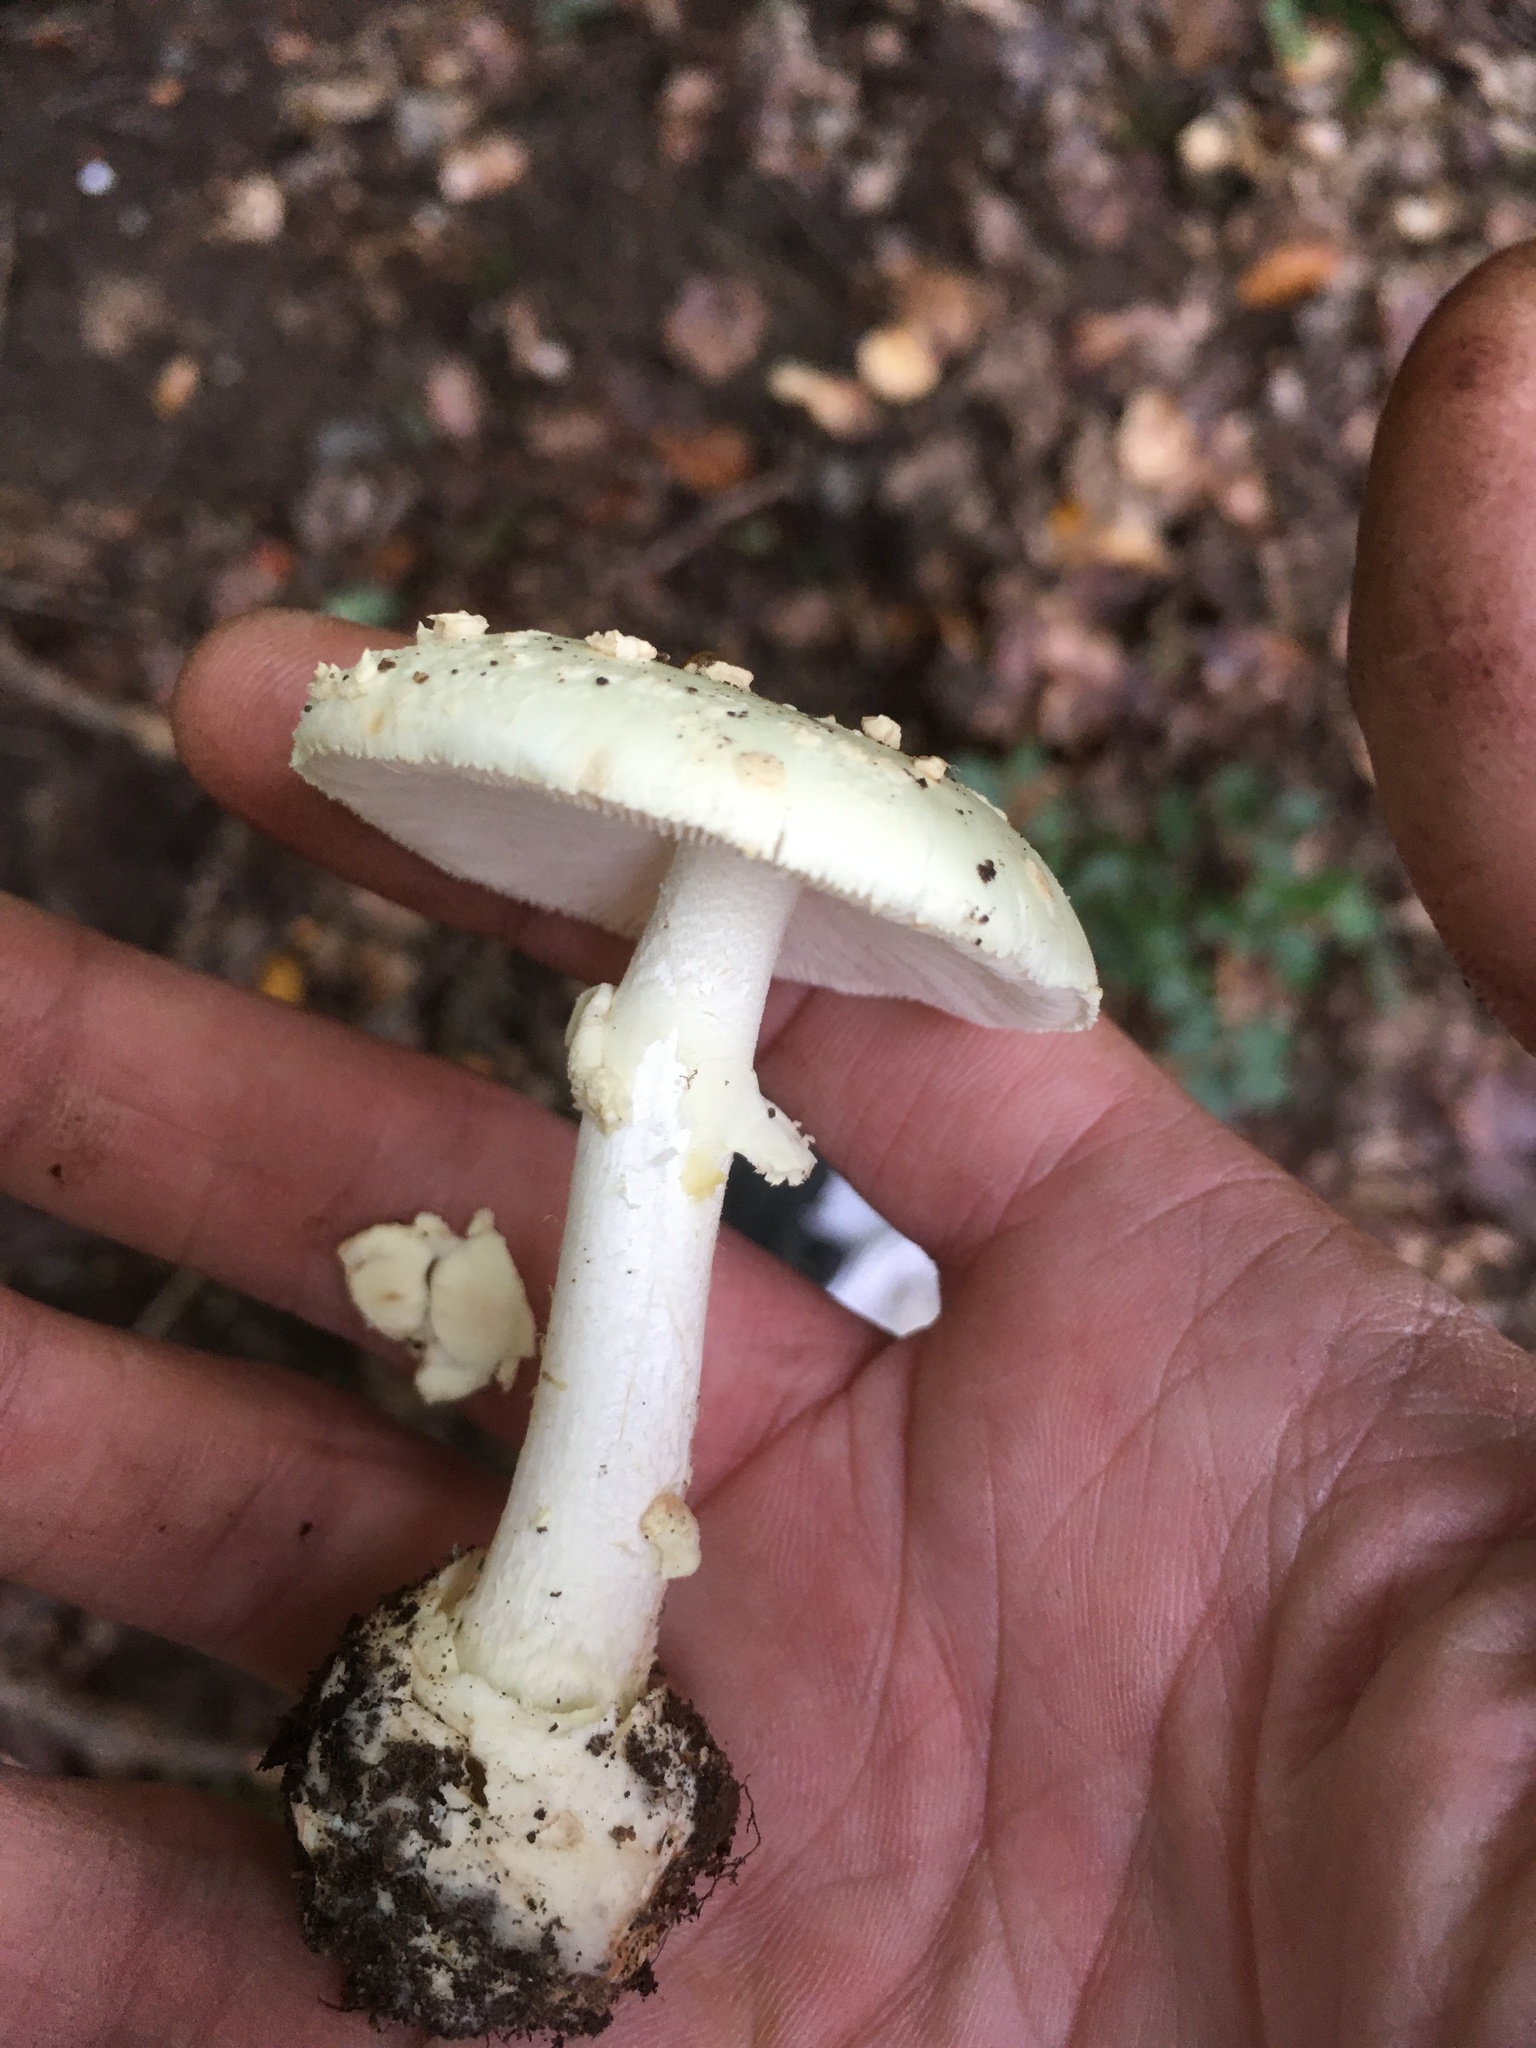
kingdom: Fungi
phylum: Basidiomycota
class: Agaricomycetes
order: Agaricales
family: Amanitaceae
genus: Amanita
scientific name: Amanita citrina
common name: False death-cap
